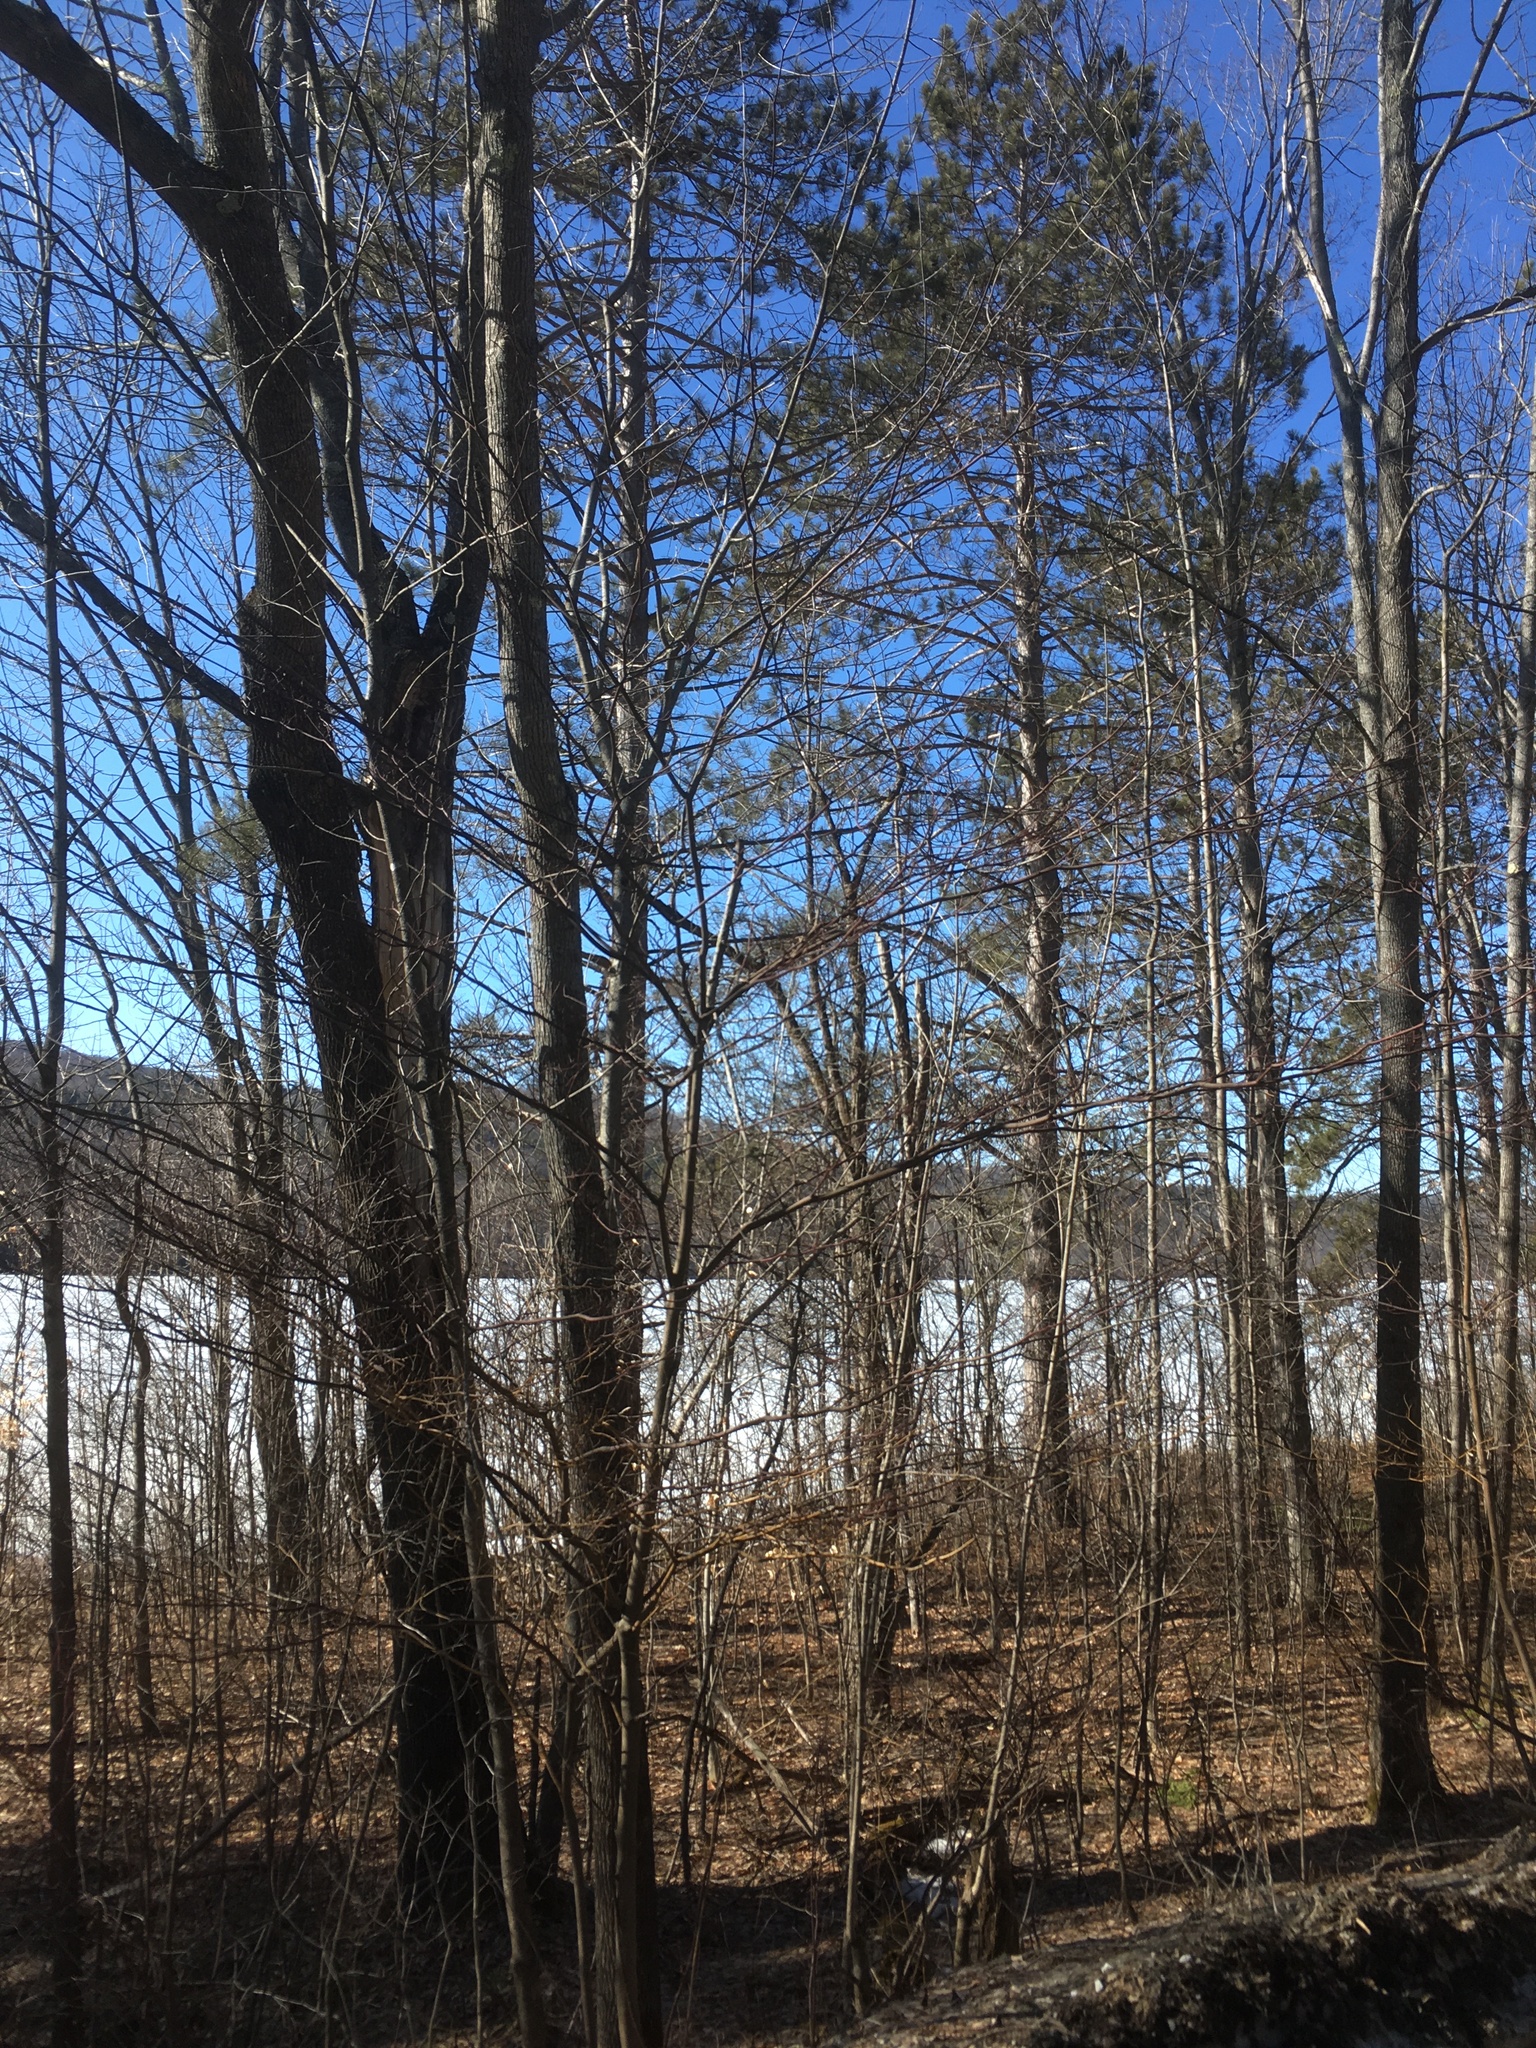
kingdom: Plantae
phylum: Tracheophyta
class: Magnoliopsida
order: Cornales
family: Cornaceae
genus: Cornus
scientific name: Cornus alternifolia
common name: Pagoda dogwood
